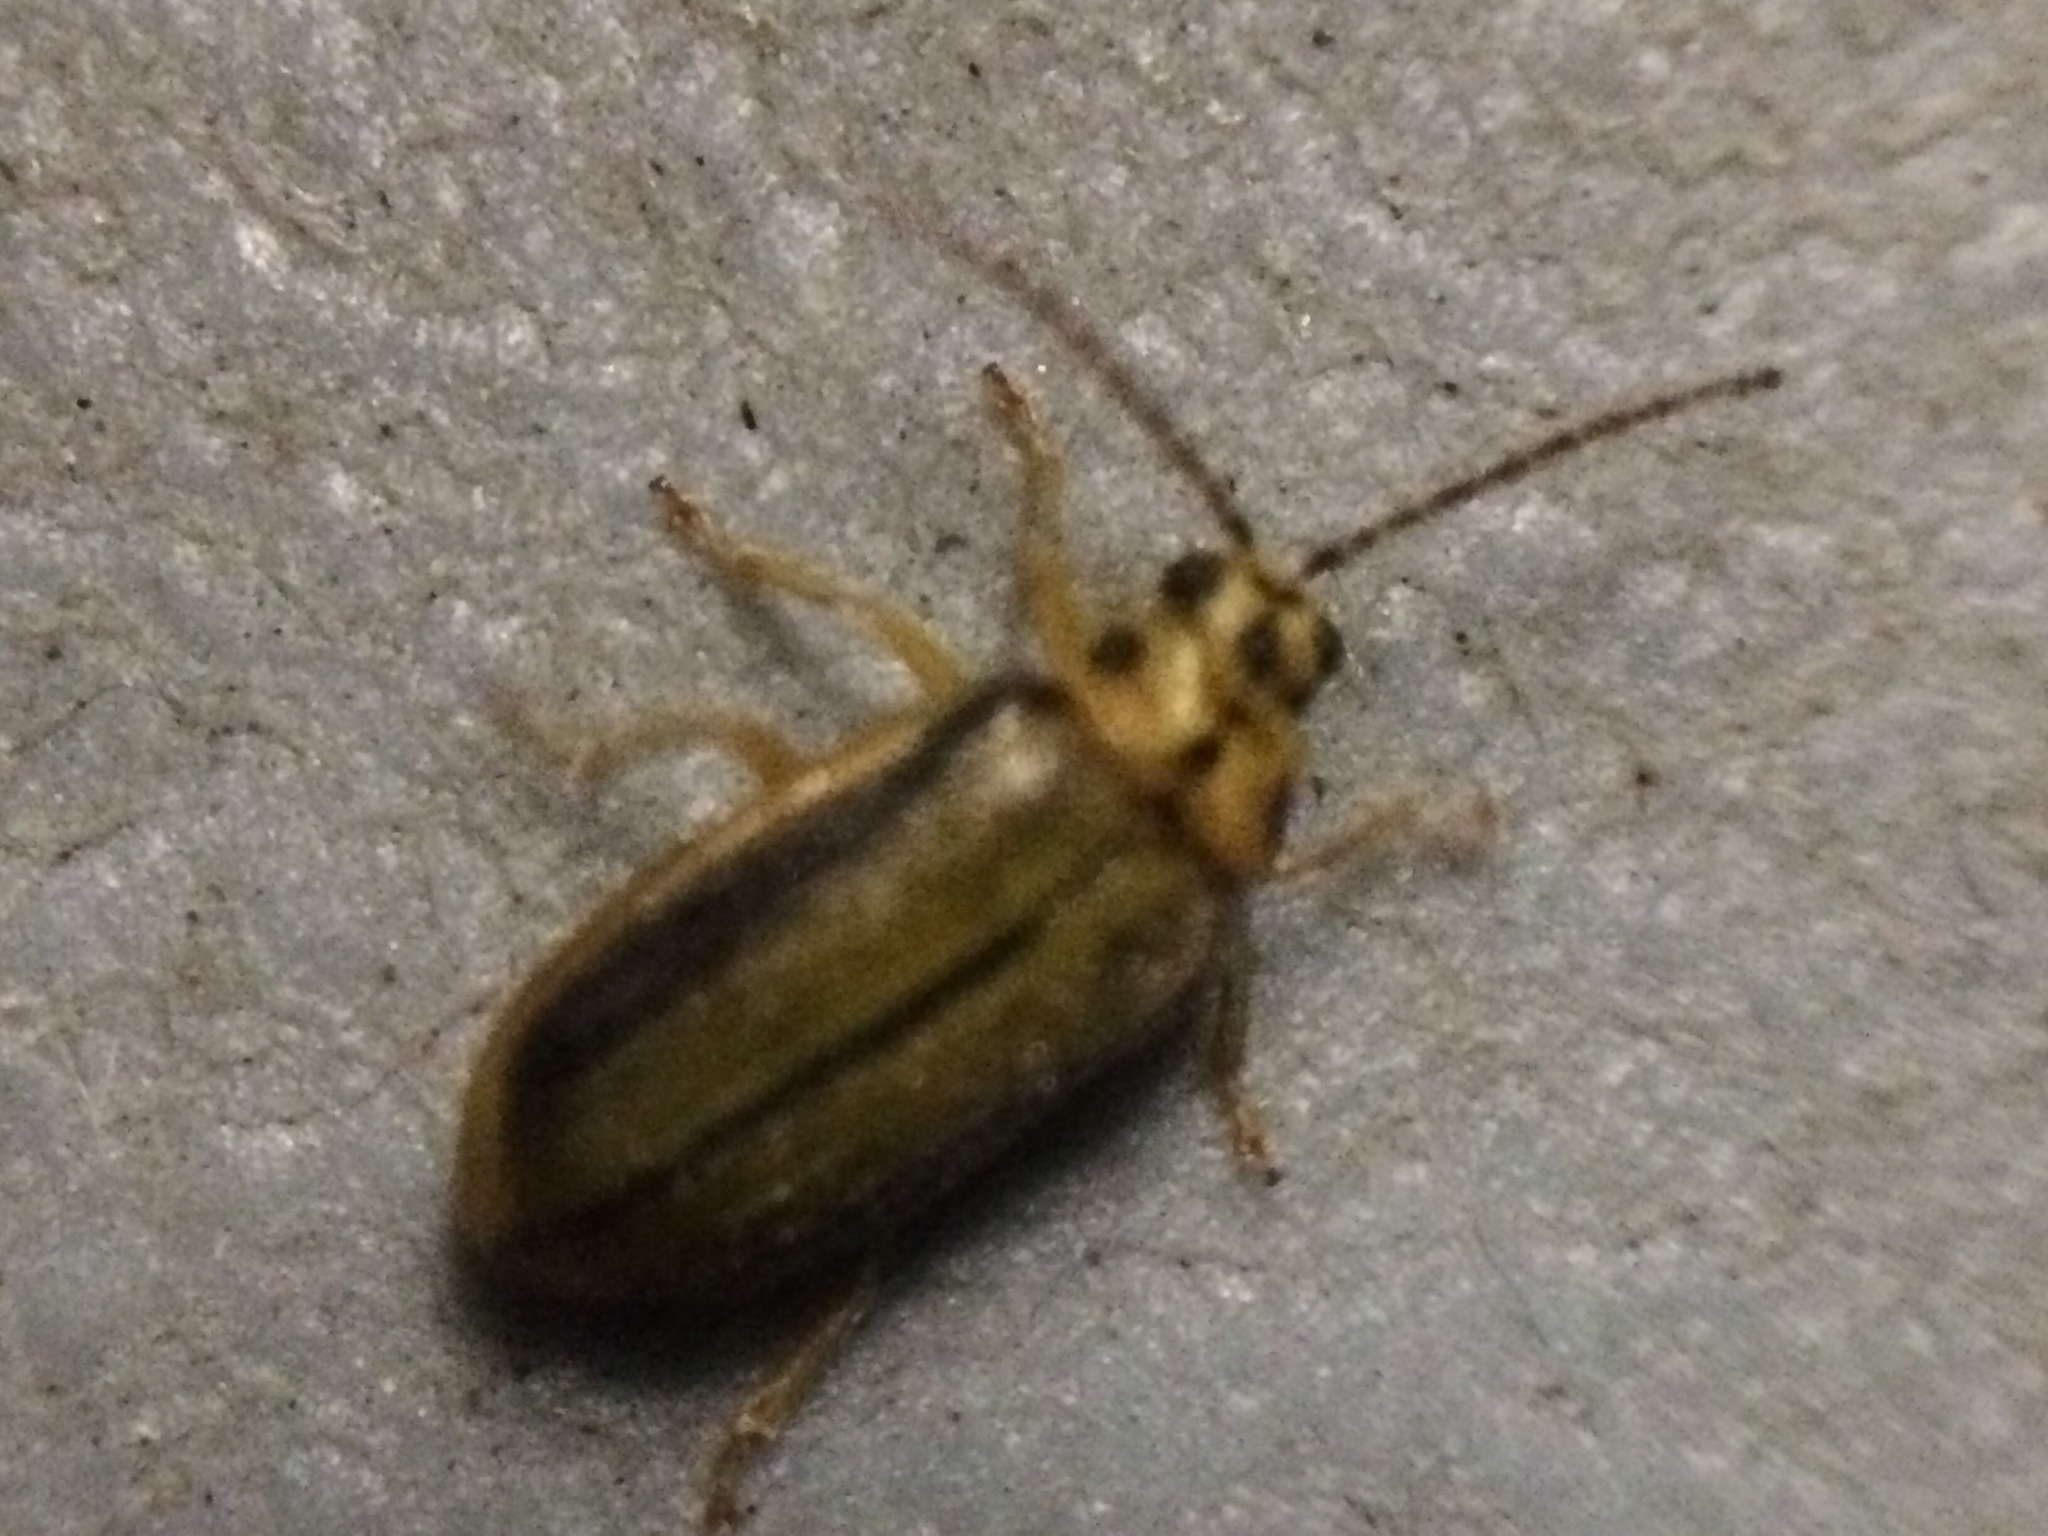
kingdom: Animalia
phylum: Arthropoda
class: Insecta
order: Coleoptera
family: Chrysomelidae
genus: Xanthogaleruca
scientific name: Xanthogaleruca luteola
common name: Elm leaf beetle
